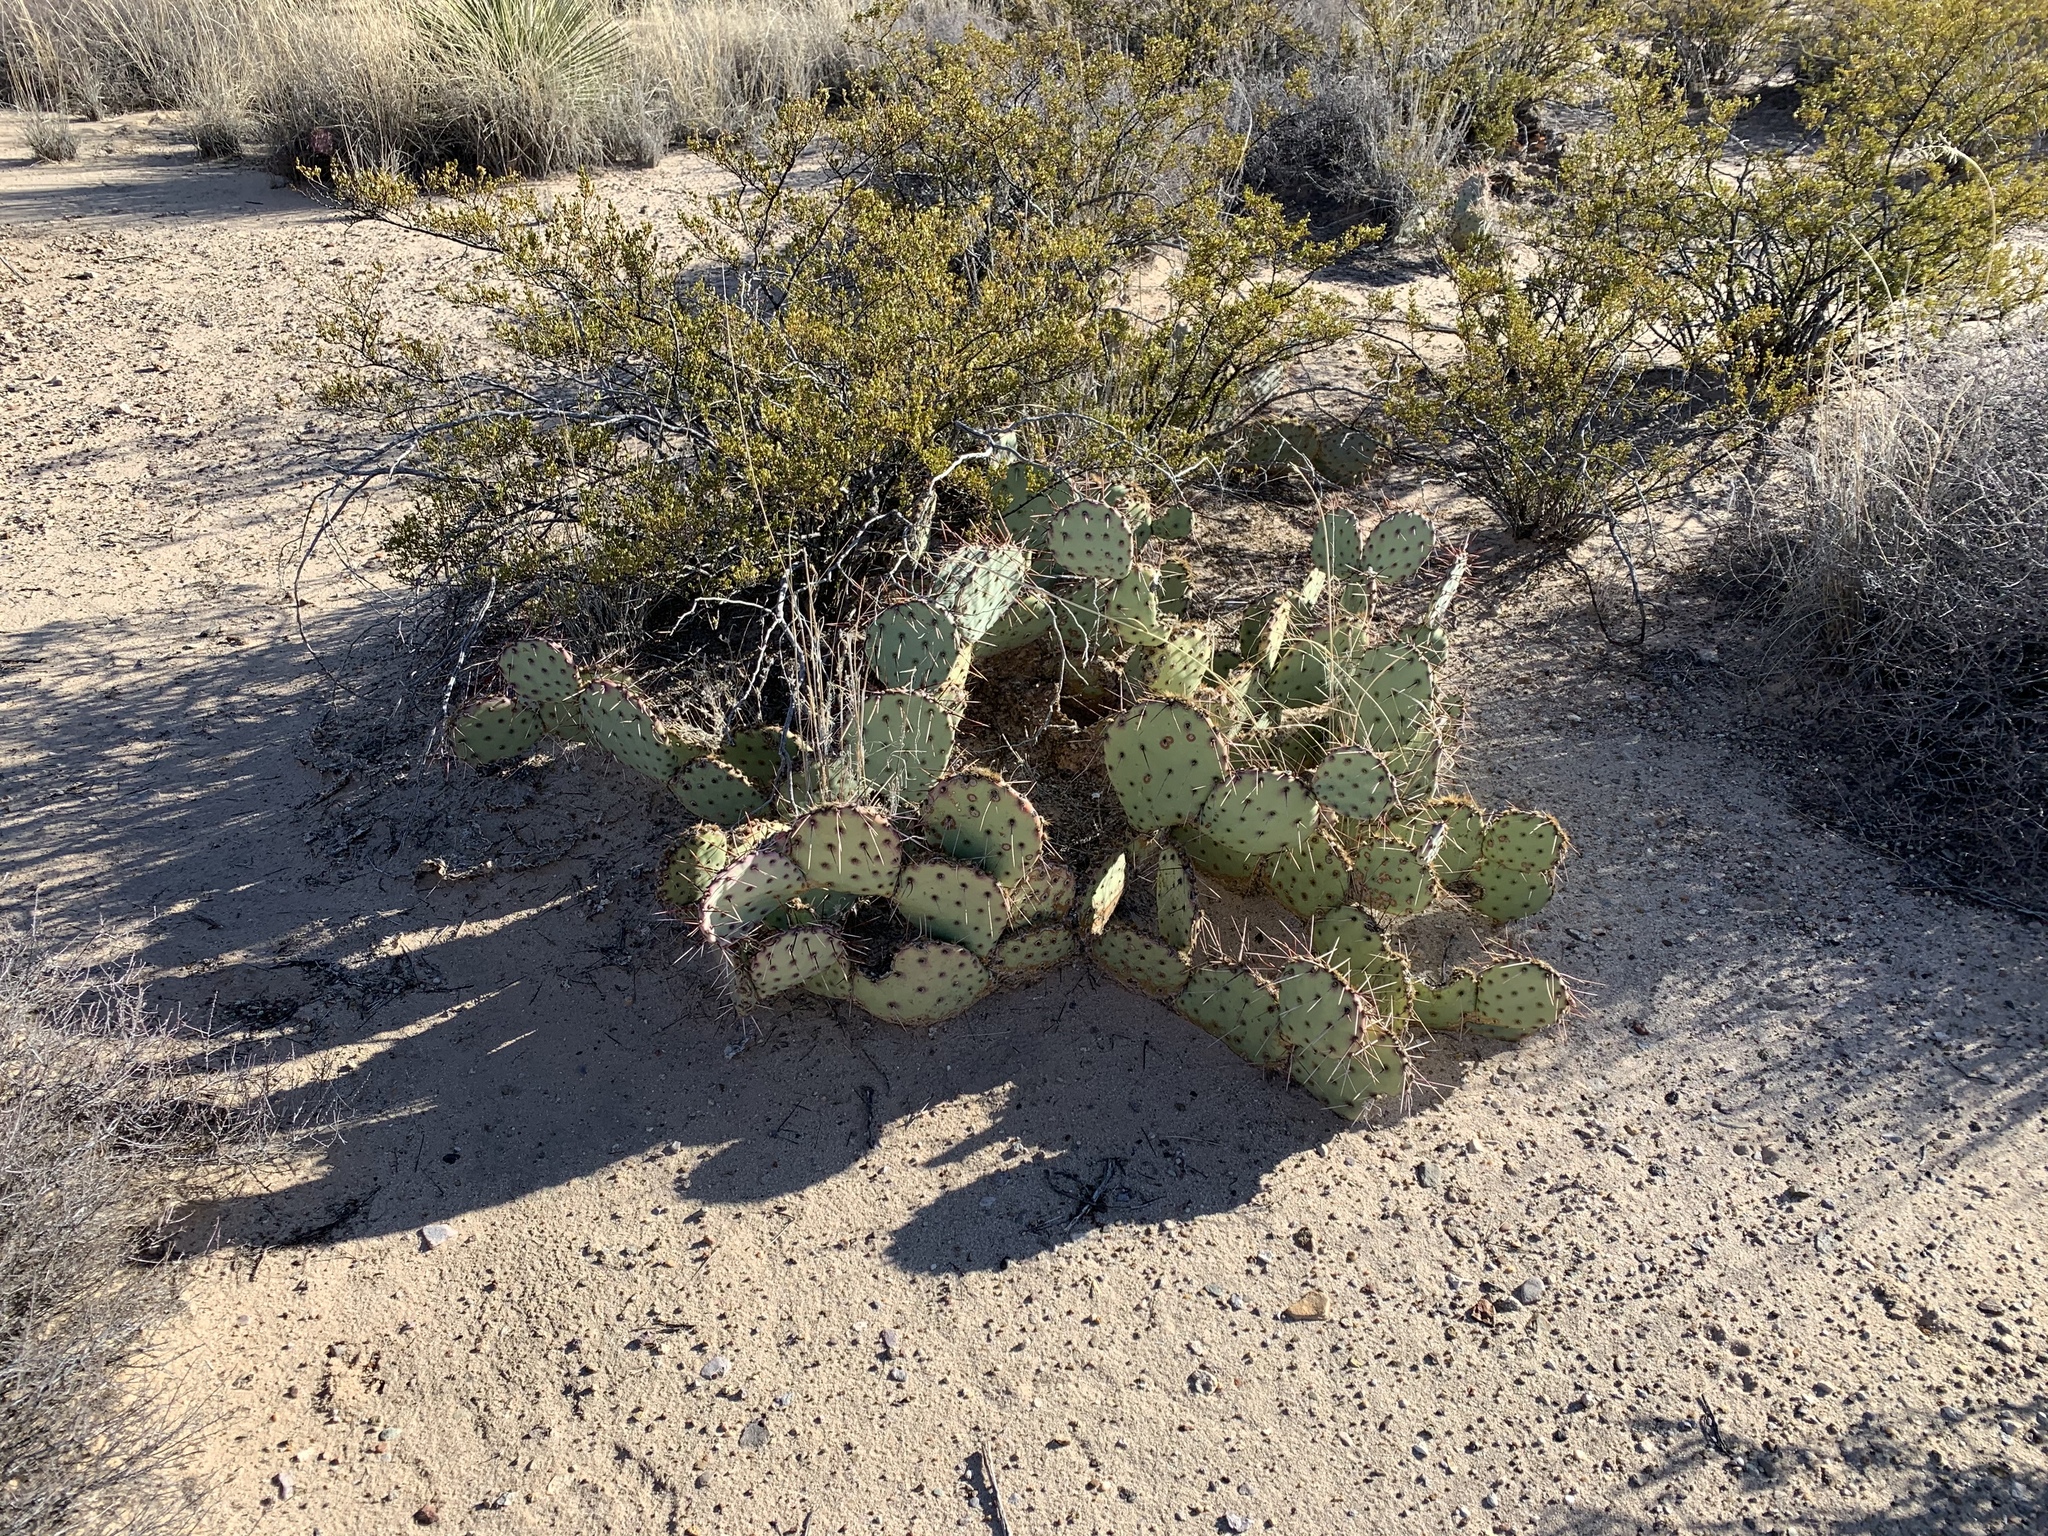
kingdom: Plantae
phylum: Tracheophyta
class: Magnoliopsida
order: Caryophyllales
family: Cactaceae
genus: Opuntia
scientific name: Opuntia macrocentra
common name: Purple prickly-pear
